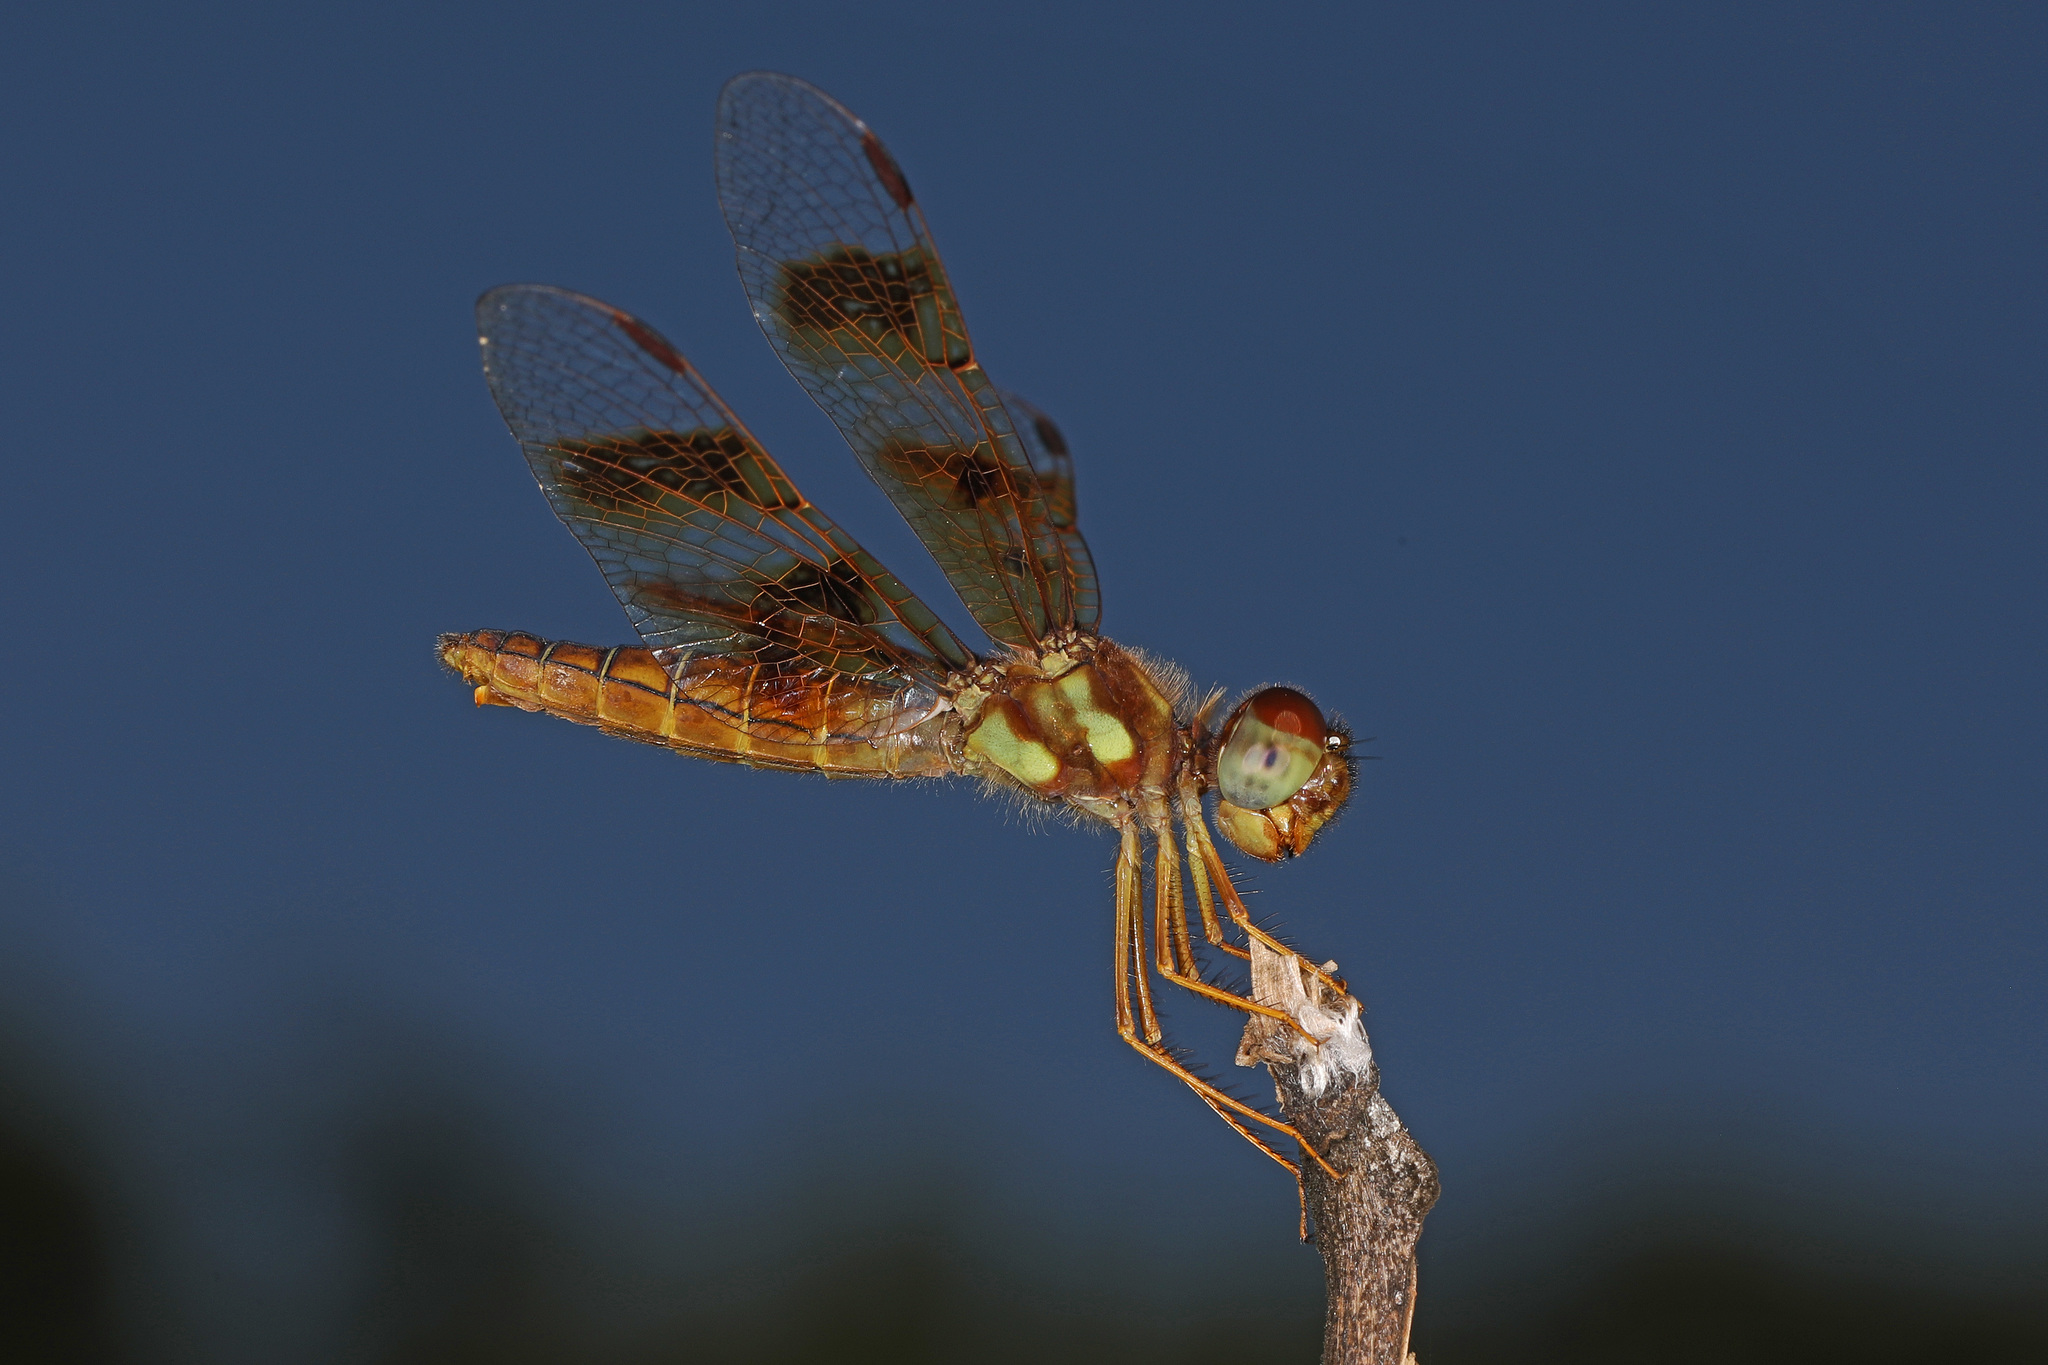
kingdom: Animalia
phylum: Arthropoda
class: Insecta
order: Odonata
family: Libellulidae
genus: Perithemis
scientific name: Perithemis tenera
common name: Eastern amberwing
